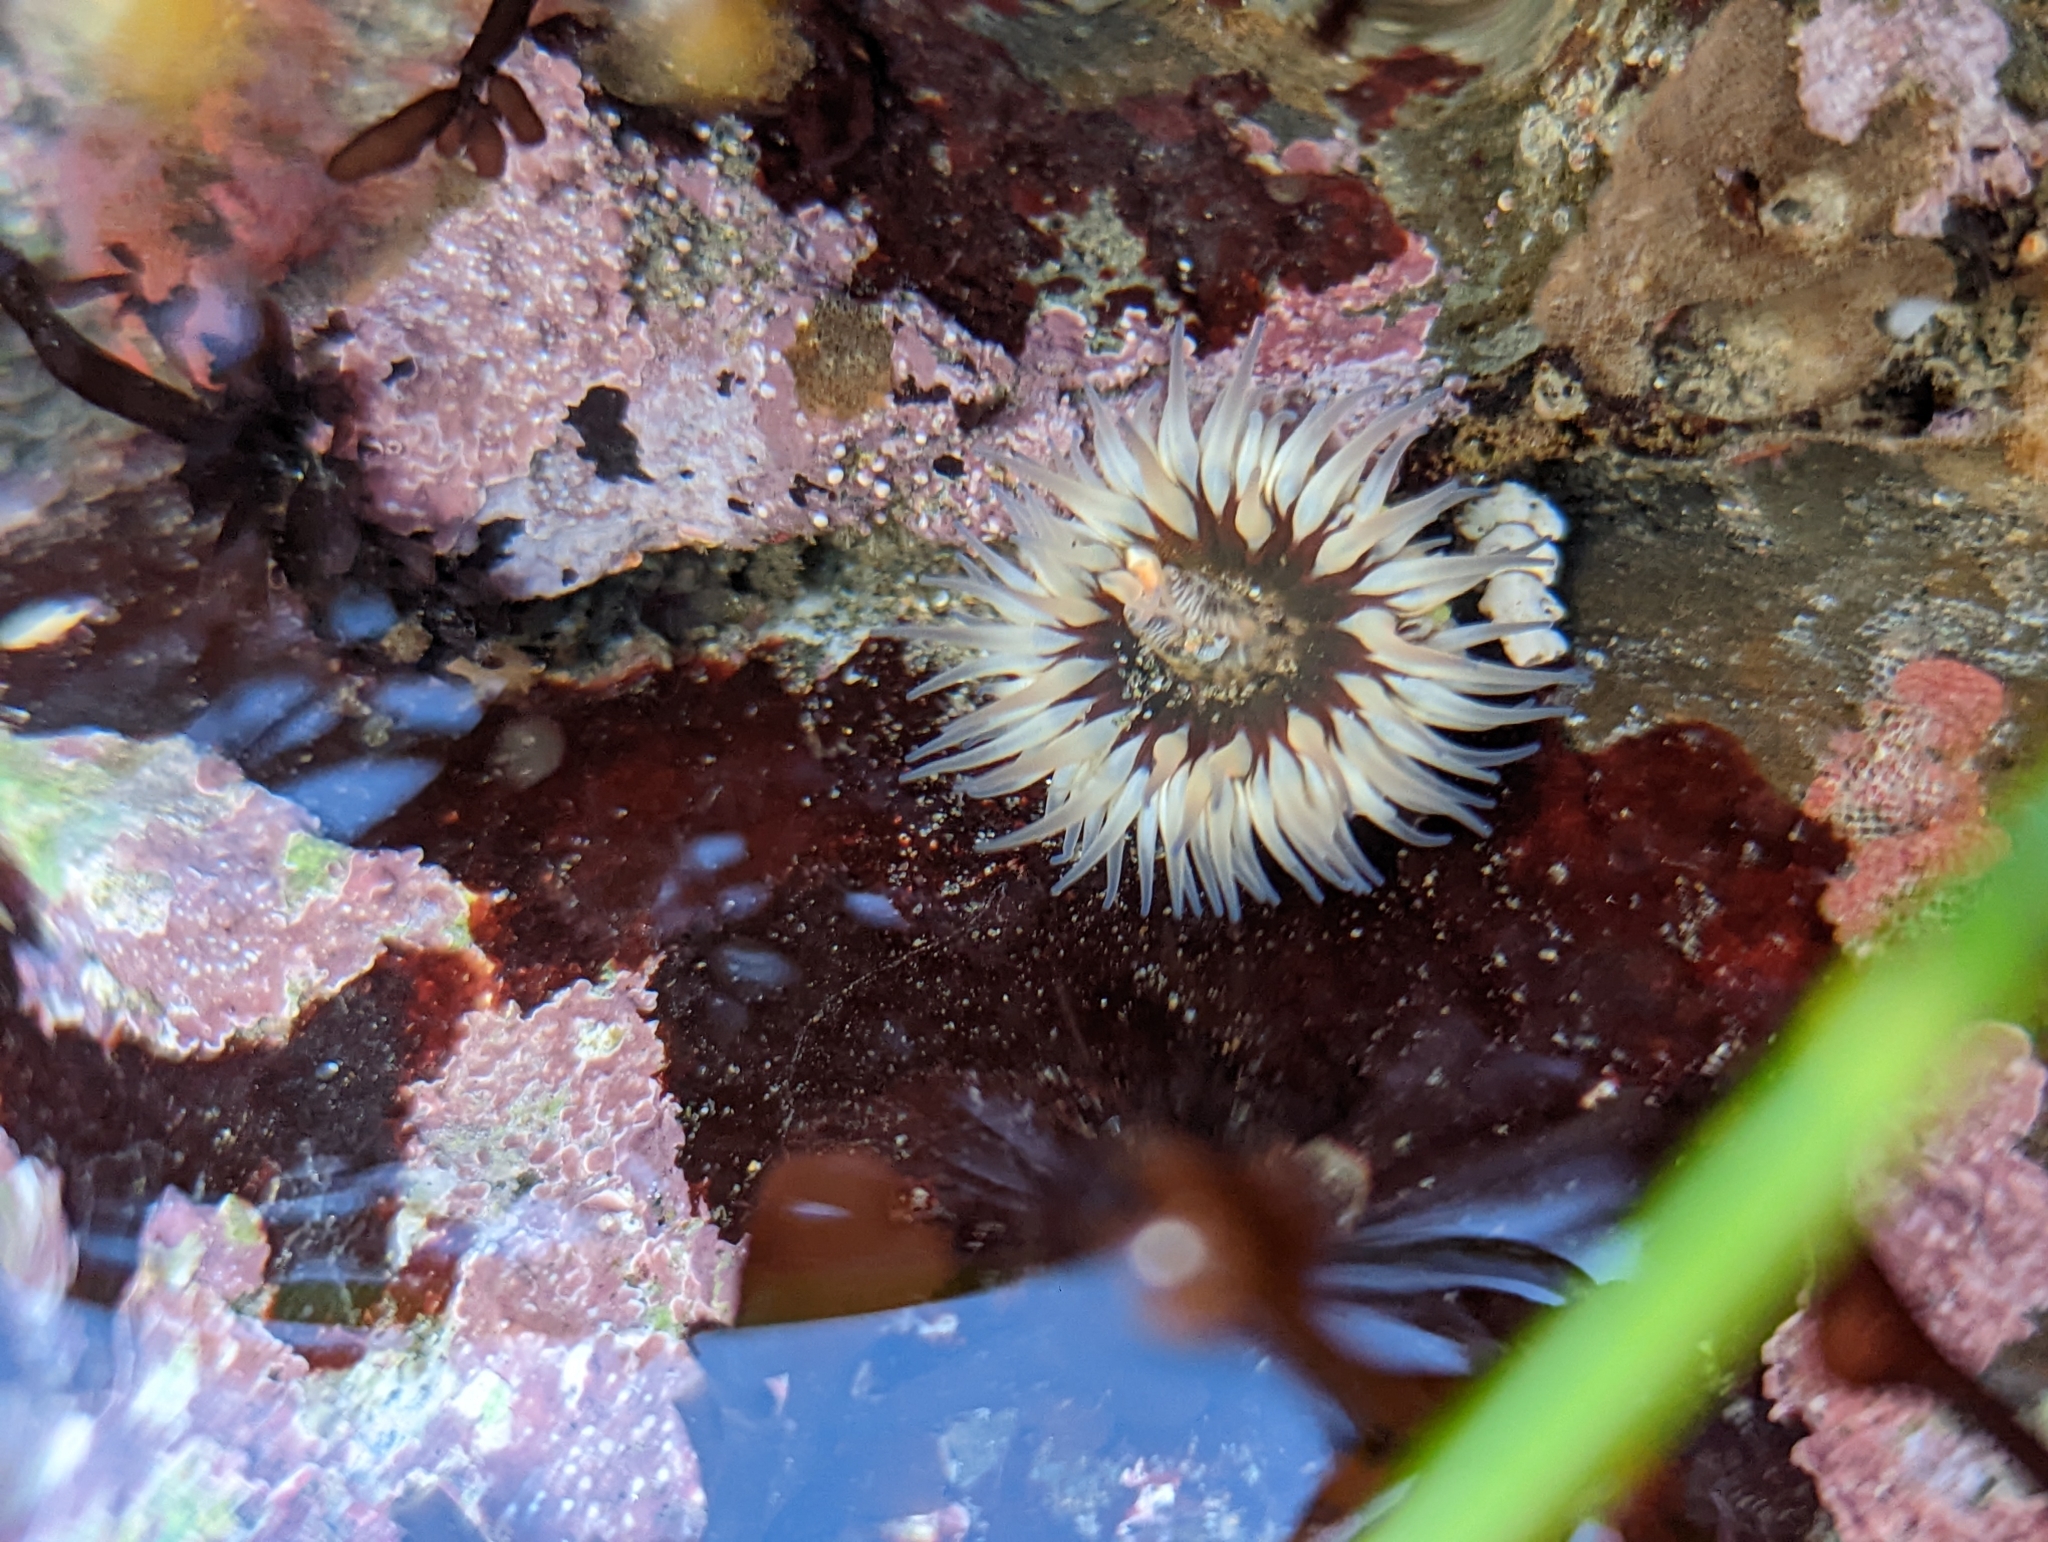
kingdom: Animalia
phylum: Cnidaria
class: Anthozoa
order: Actiniaria
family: Actiniidae
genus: Anthopleura
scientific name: Anthopleura artemisia
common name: Buried sea anemone
